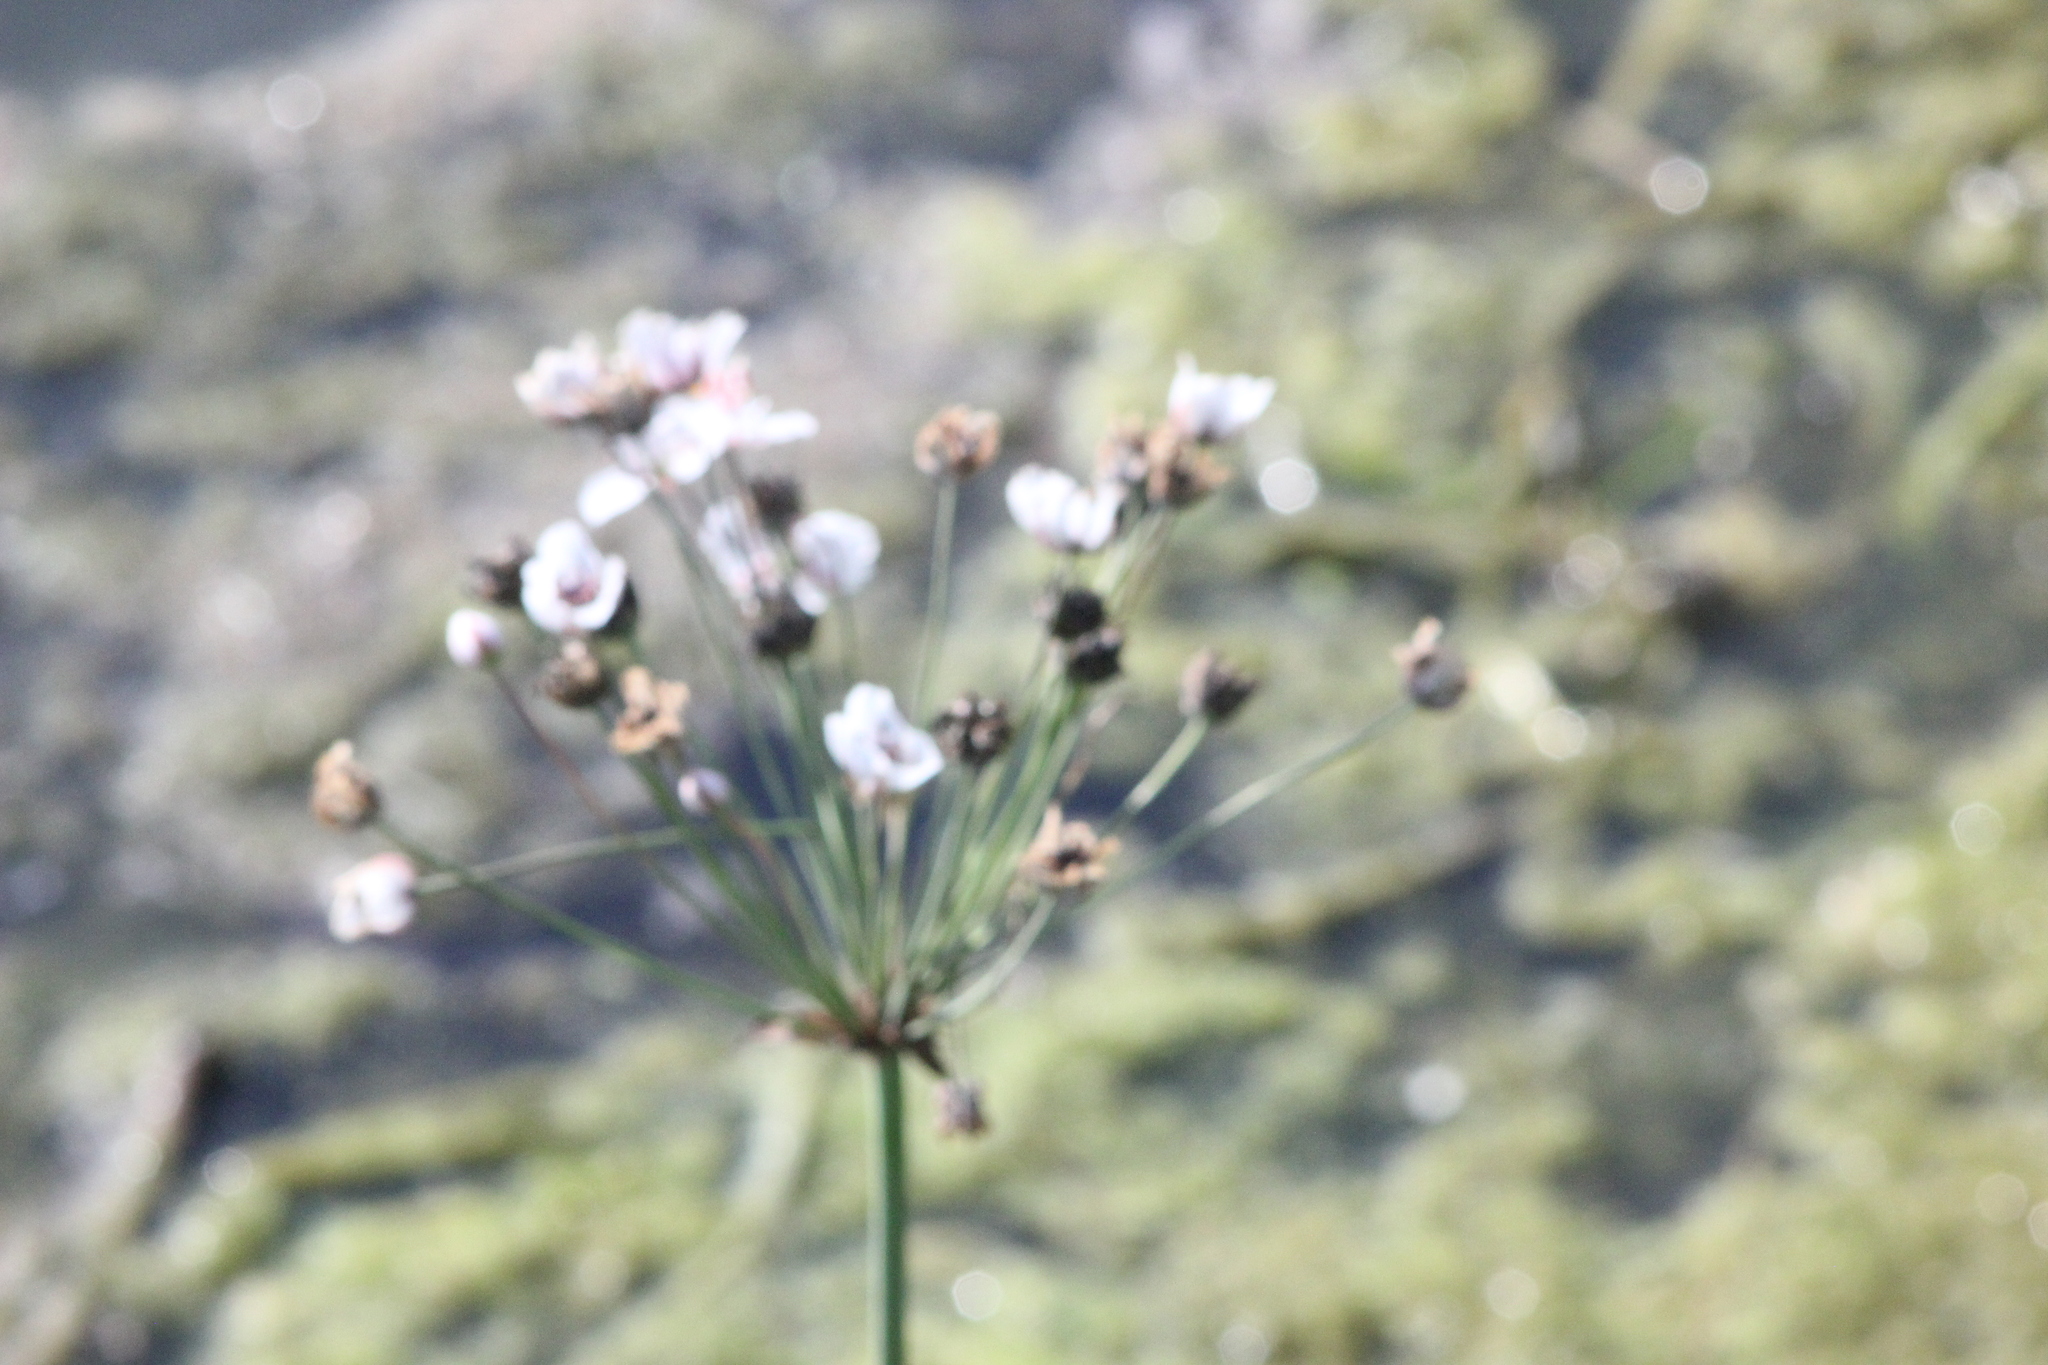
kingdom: Plantae
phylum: Tracheophyta
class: Liliopsida
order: Alismatales
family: Butomaceae
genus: Butomus
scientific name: Butomus umbellatus
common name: Flowering-rush
